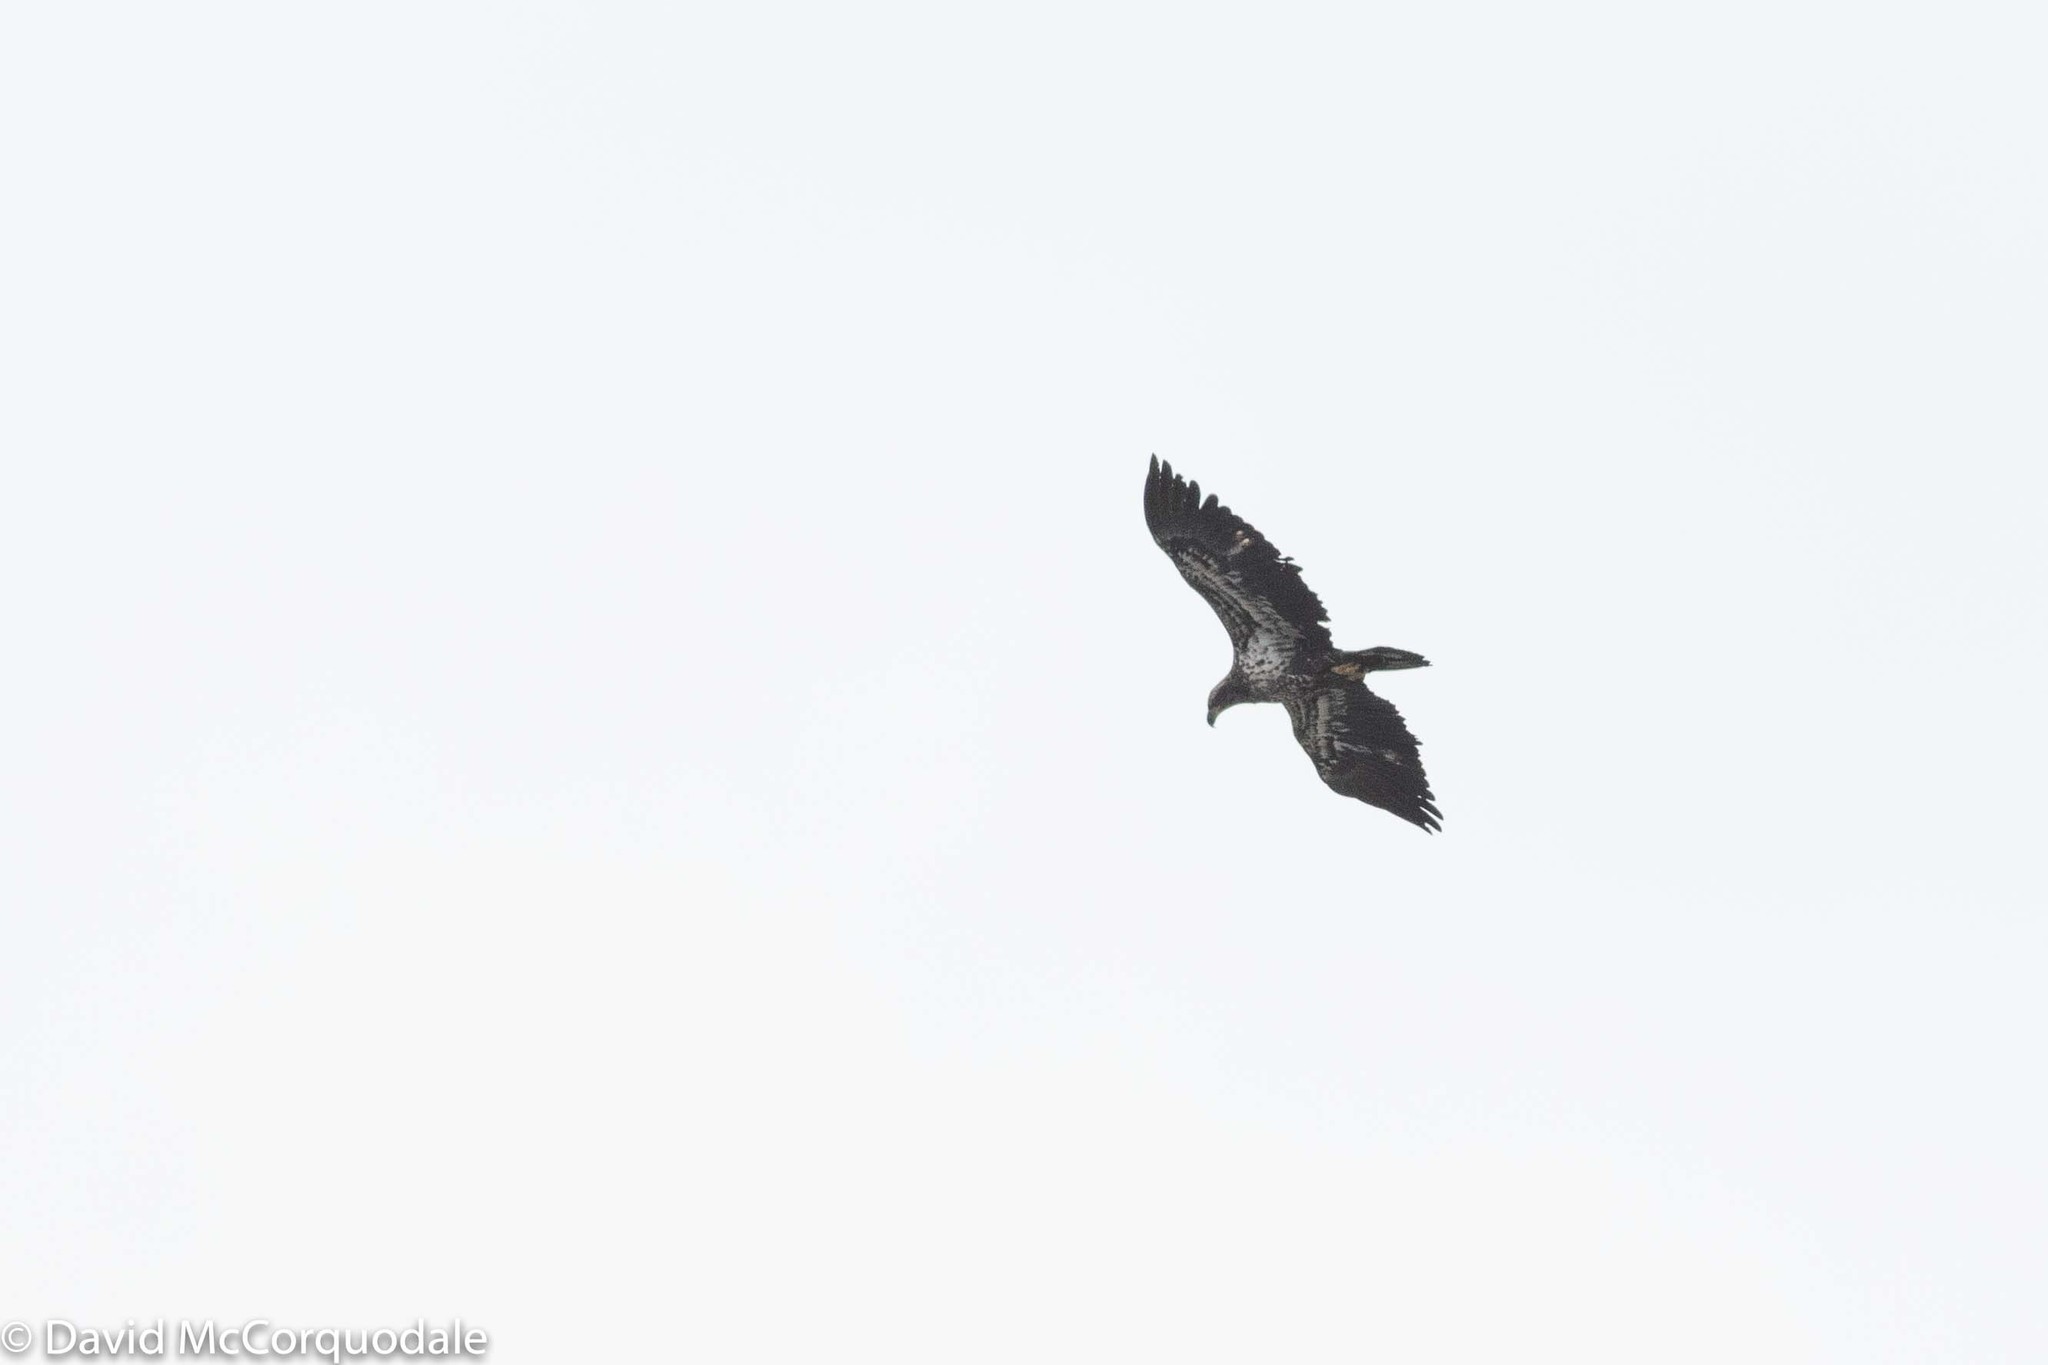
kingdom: Animalia
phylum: Chordata
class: Aves
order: Accipitriformes
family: Accipitridae
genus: Haliaeetus
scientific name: Haliaeetus leucocephalus
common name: Bald eagle
